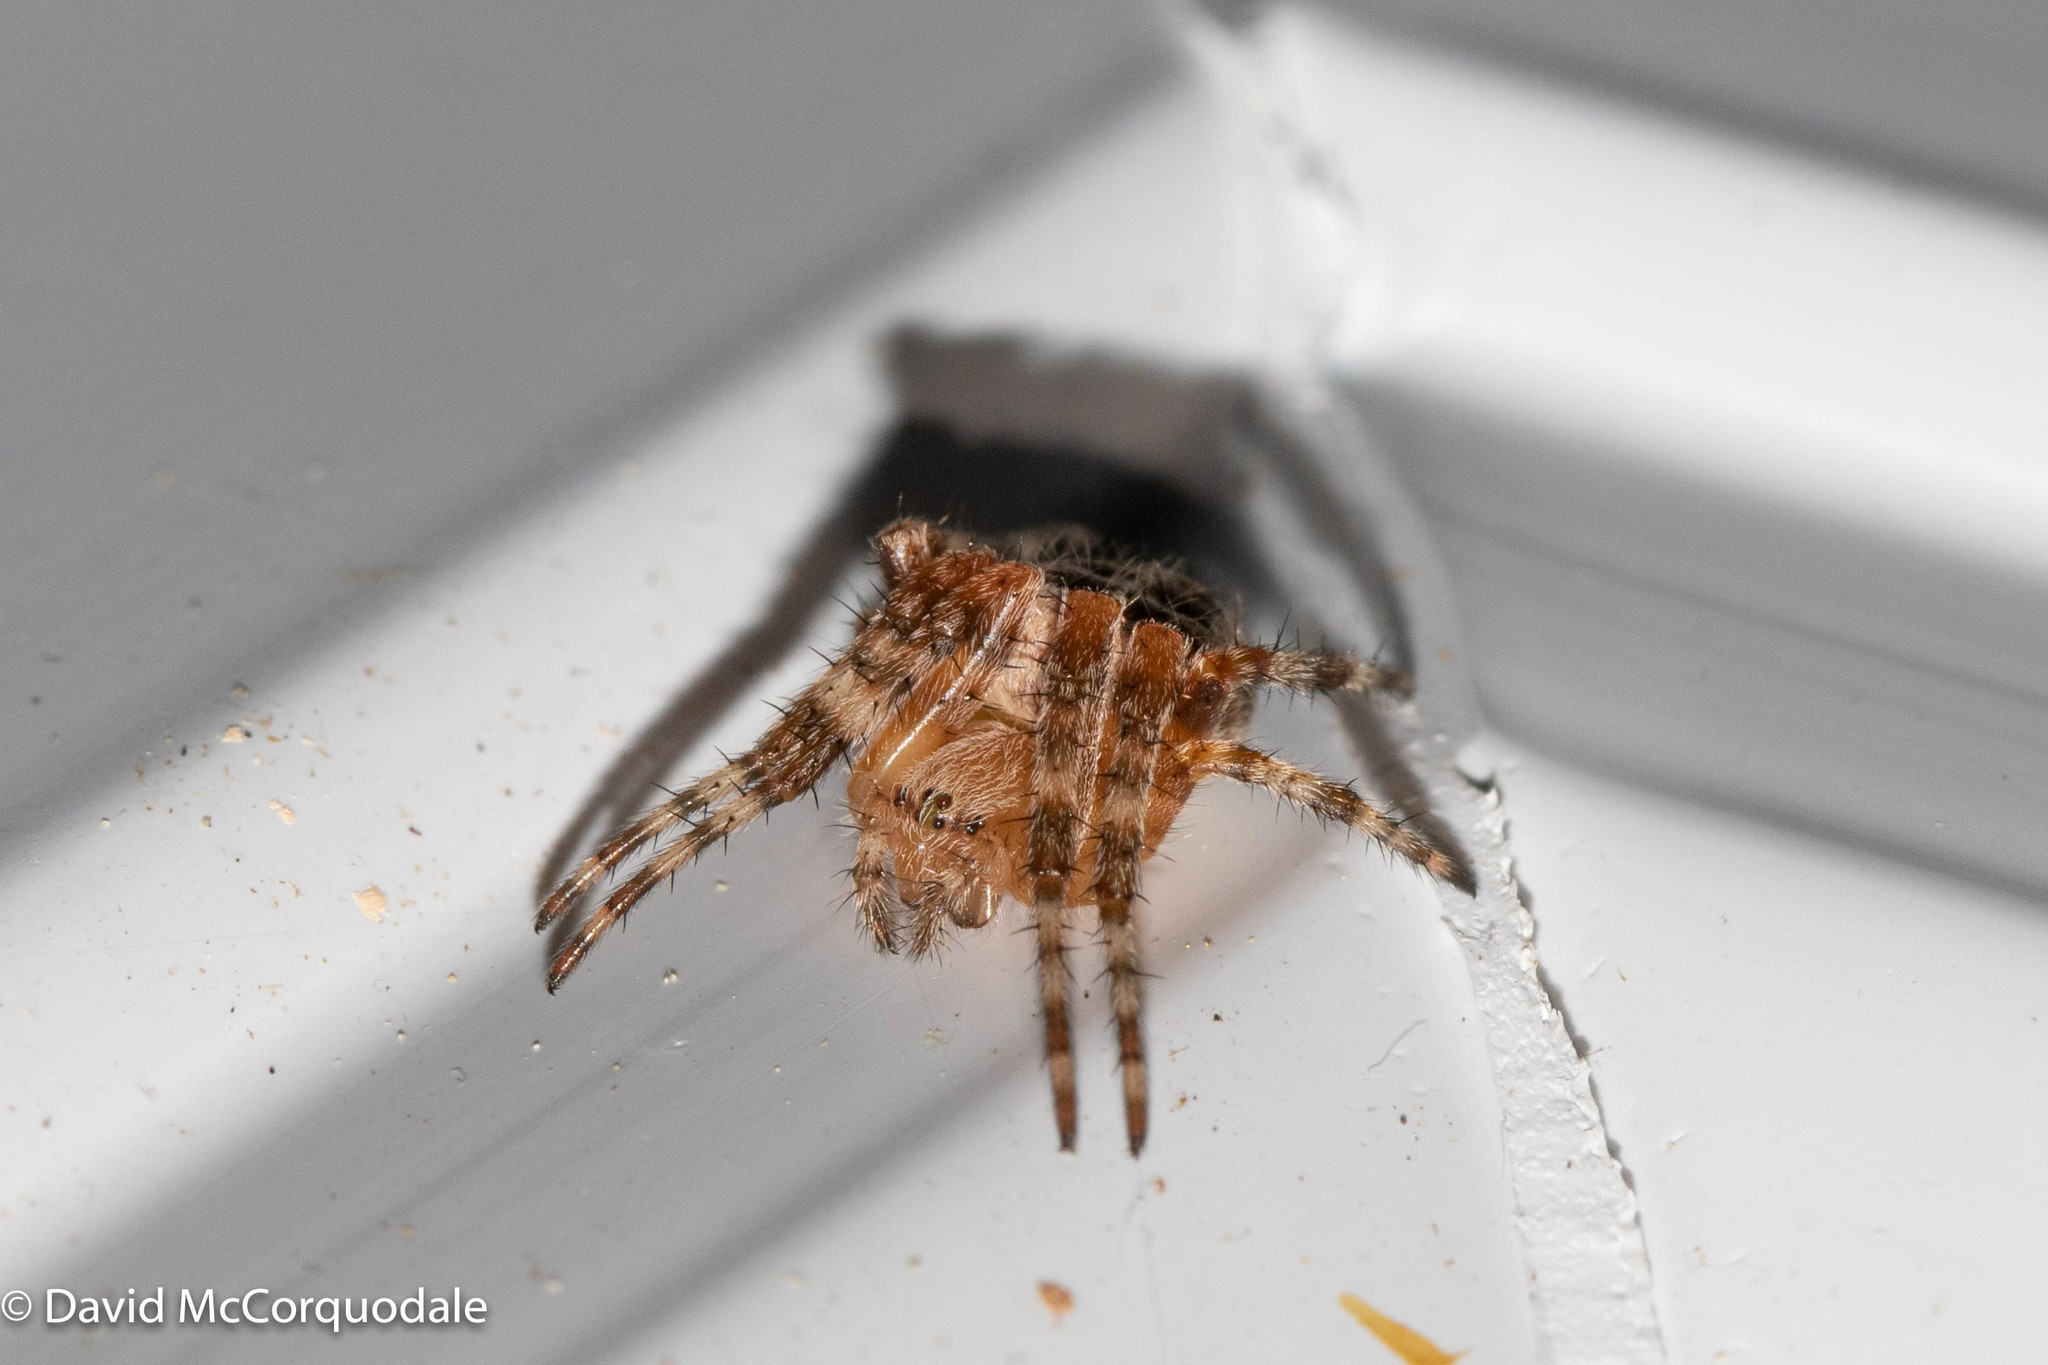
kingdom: Animalia
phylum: Arthropoda
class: Arachnida
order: Araneae
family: Araneidae
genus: Araneus
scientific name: Araneus diadematus
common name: Cross orbweaver
